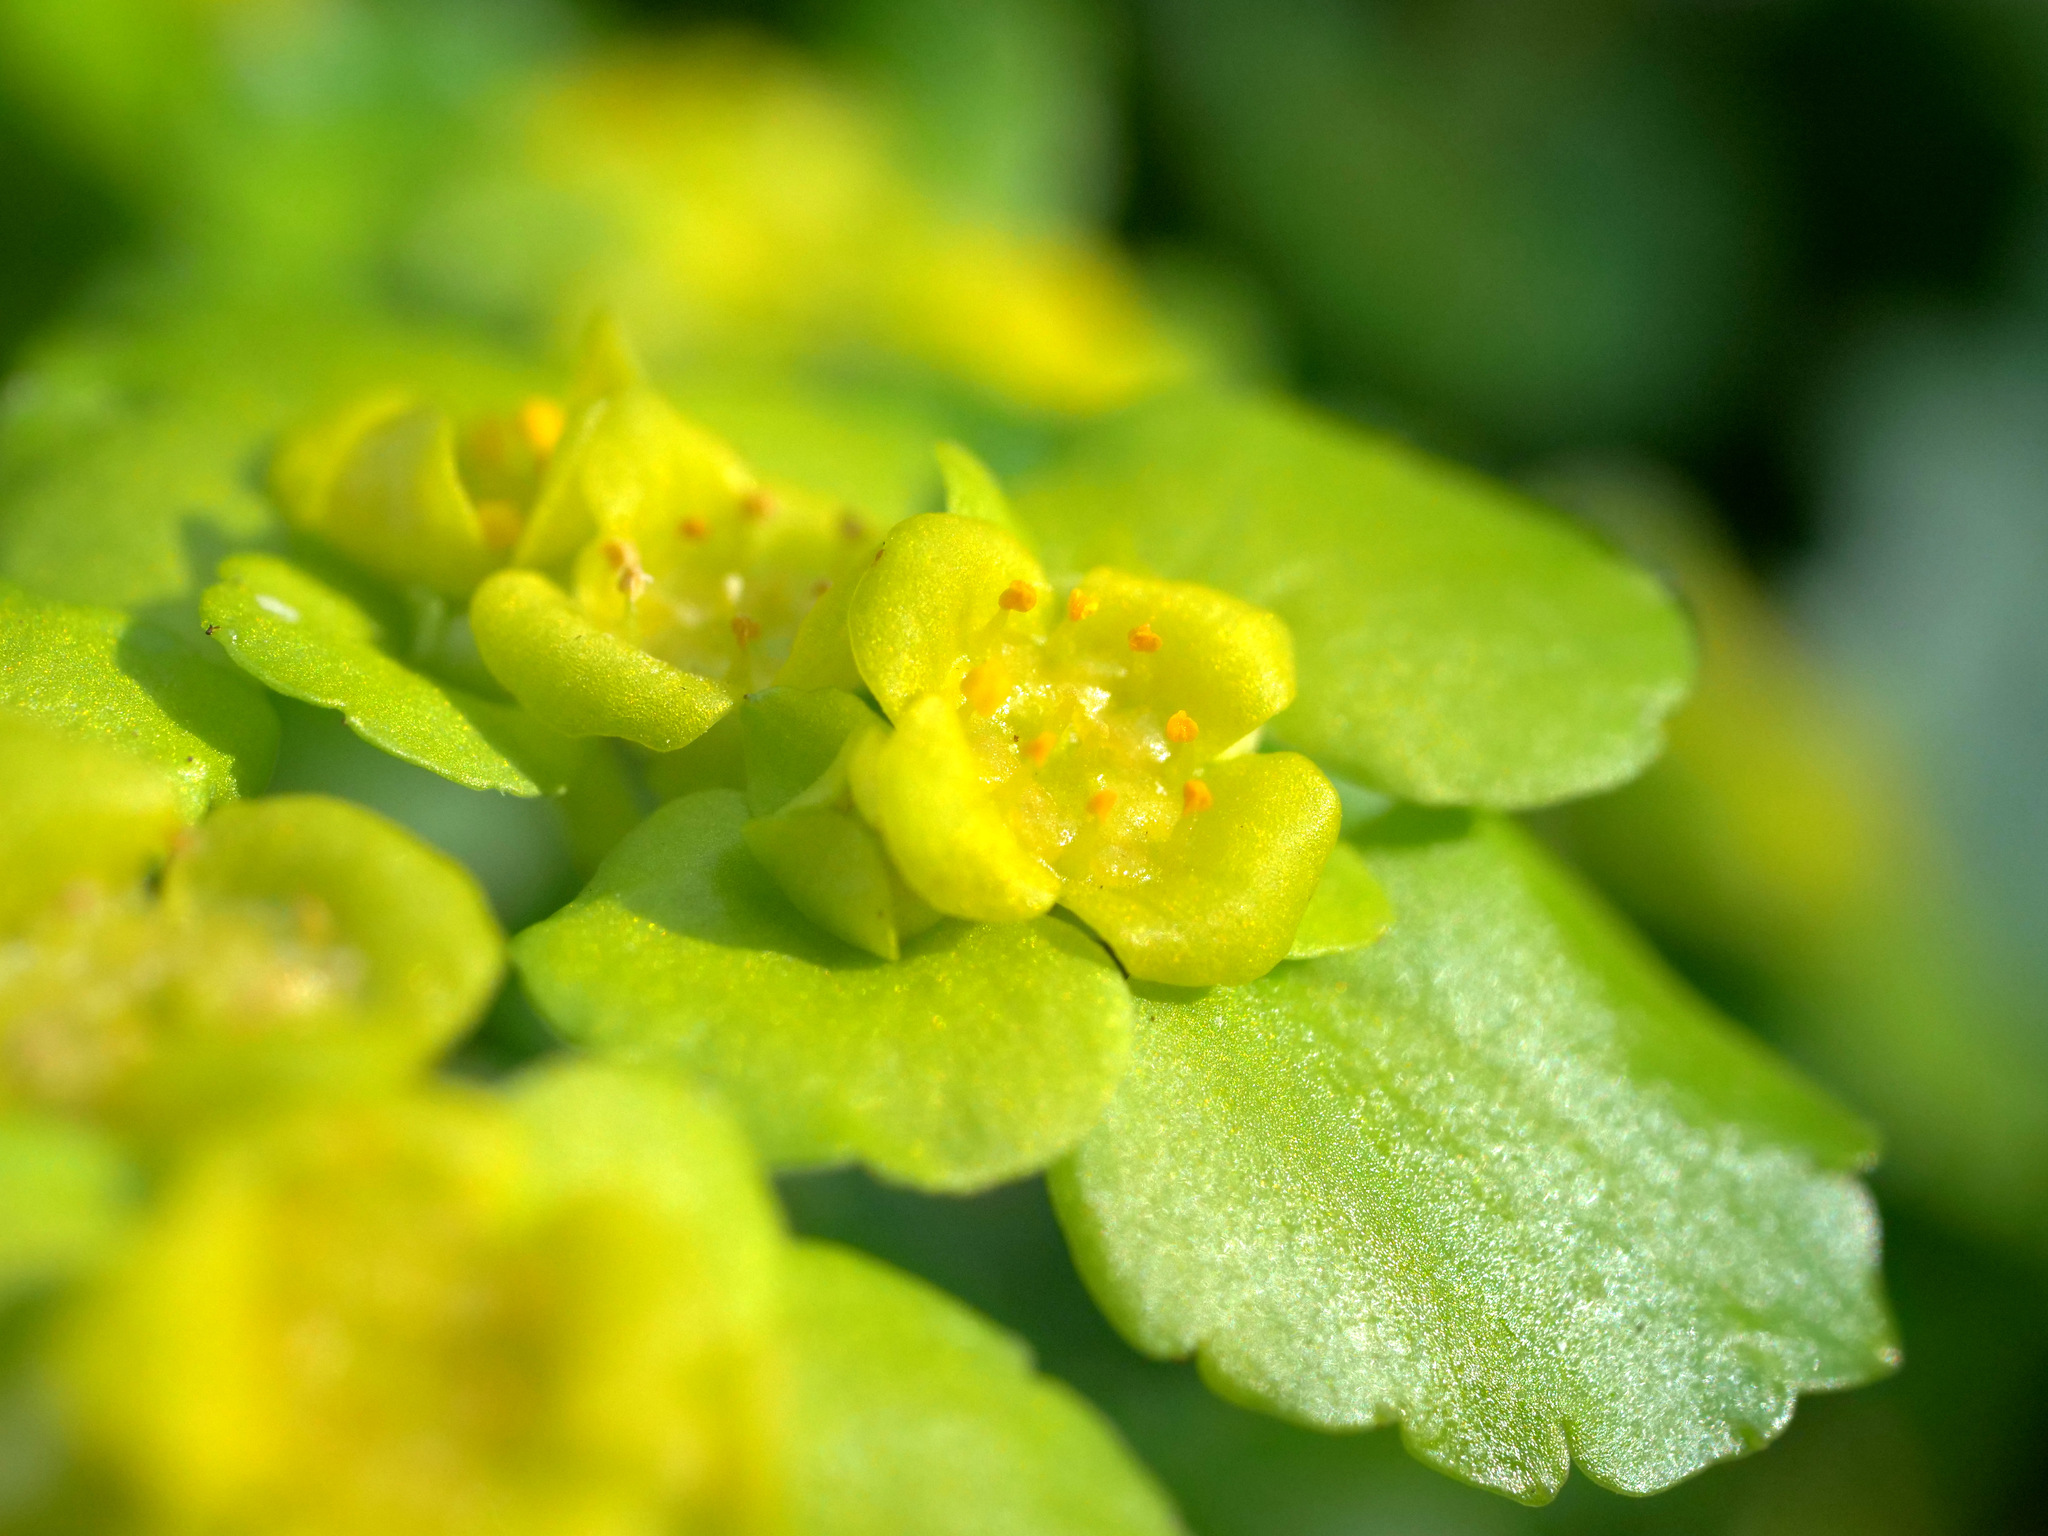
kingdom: Plantae
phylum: Tracheophyta
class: Magnoliopsida
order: Saxifragales
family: Saxifragaceae
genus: Chrysosplenium
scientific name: Chrysosplenium alternifolium
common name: Alternate-leaved golden-saxifrage
